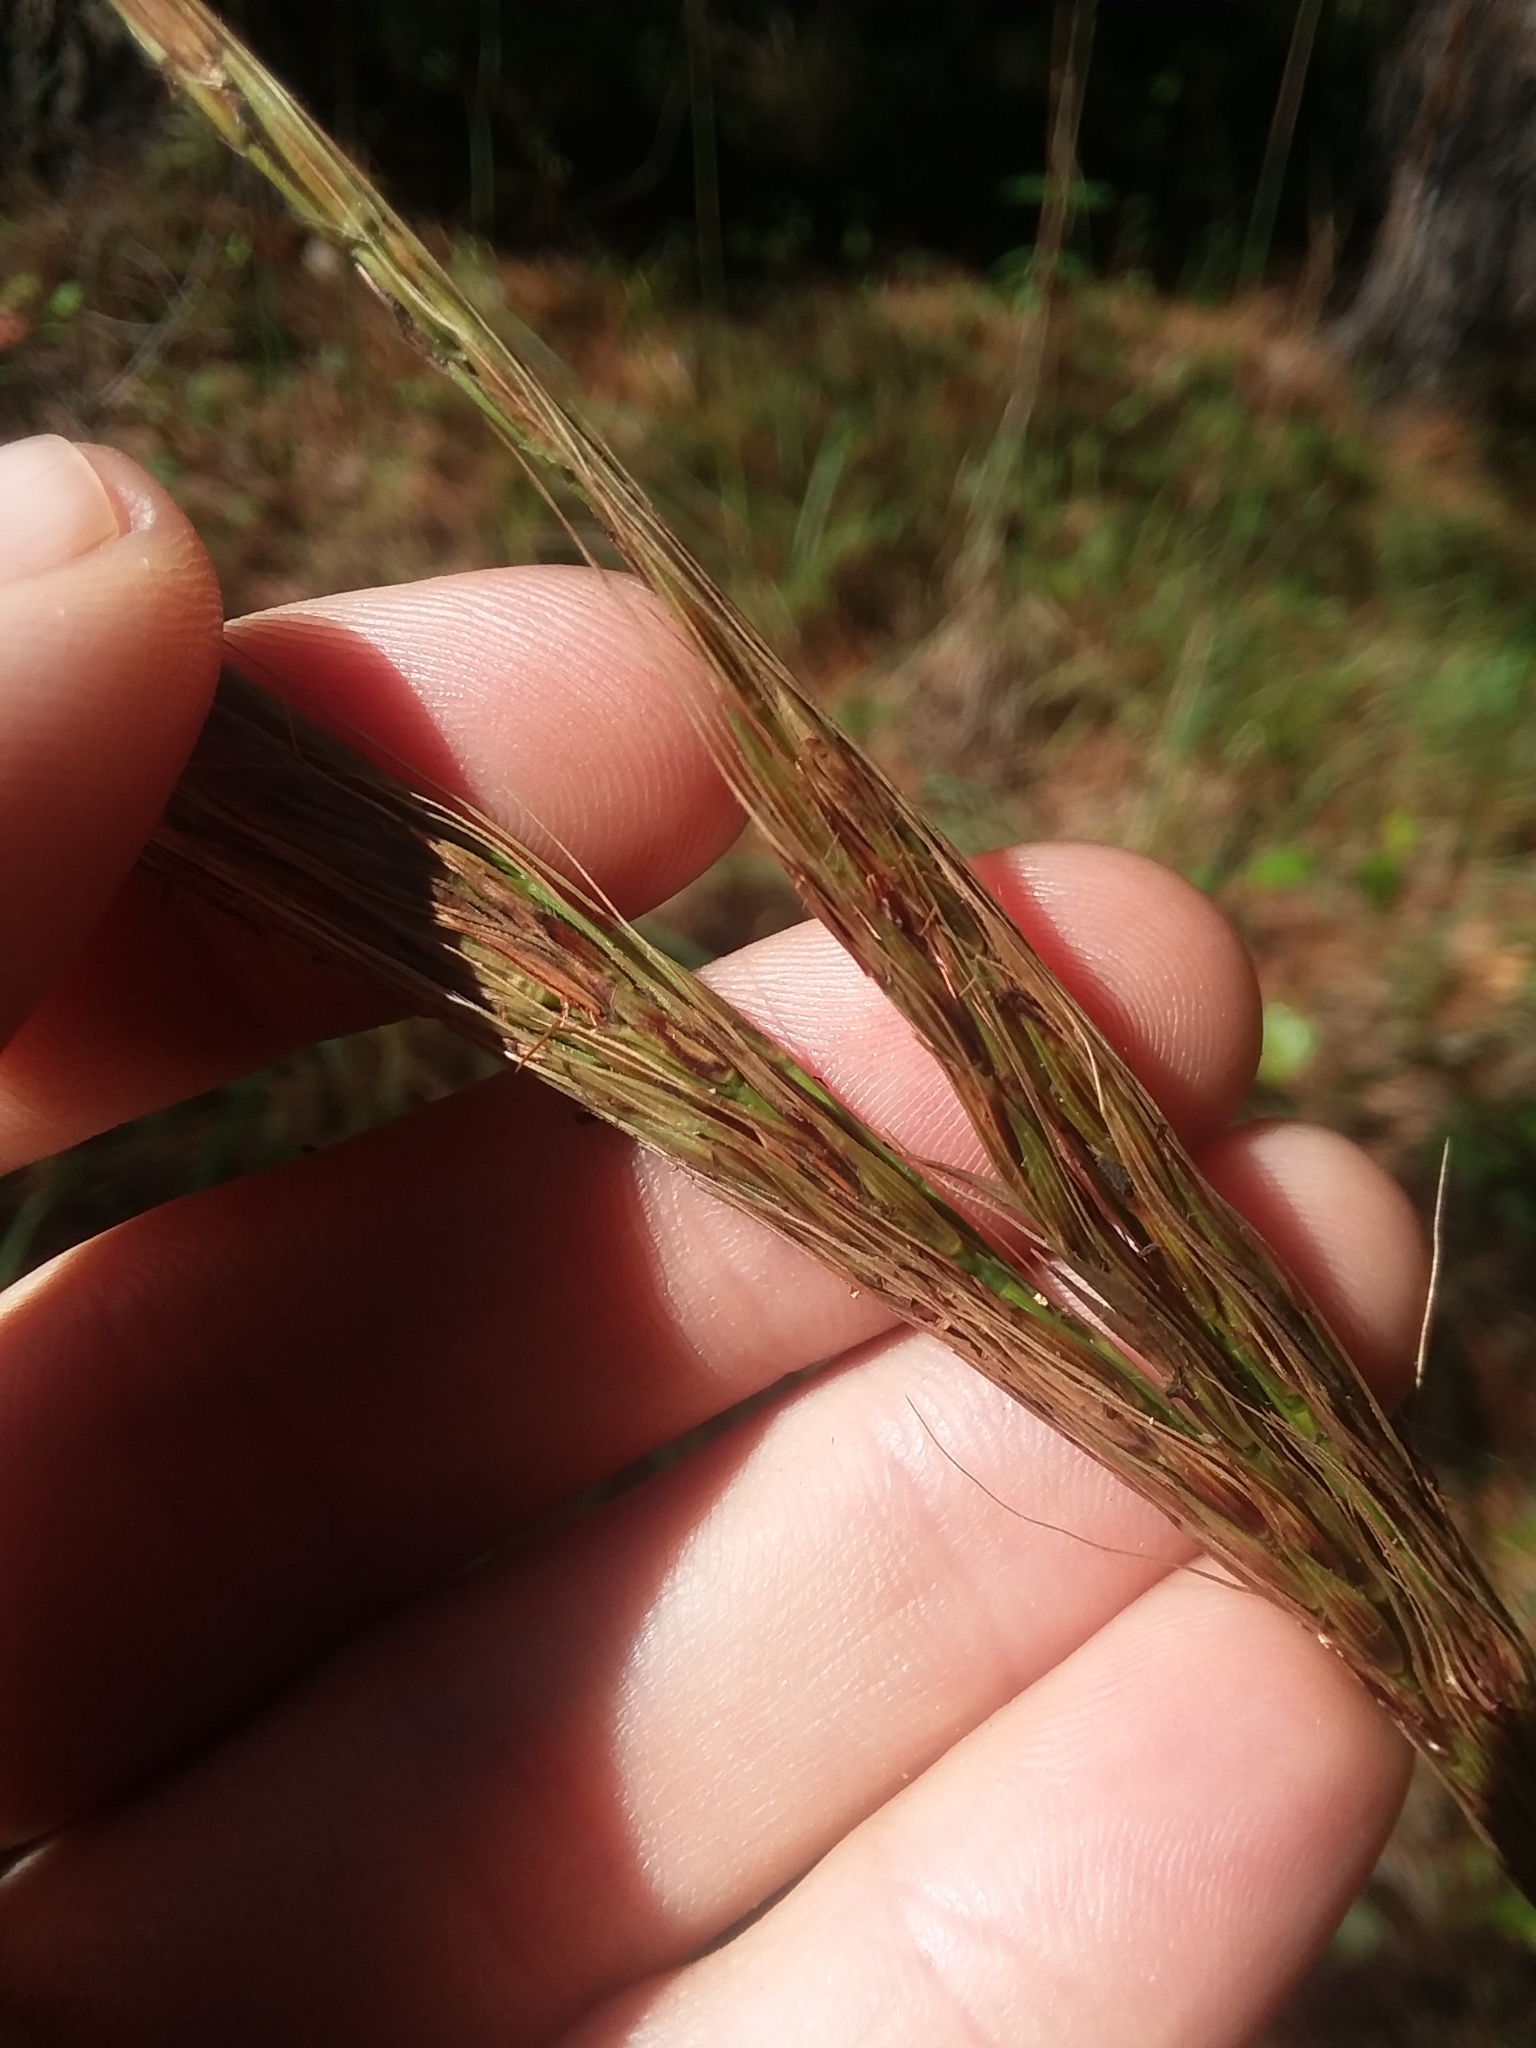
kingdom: Plantae
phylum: Tracheophyta
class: Liliopsida
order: Poales
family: Poaceae
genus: Erianthus
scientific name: Erianthus strictus
